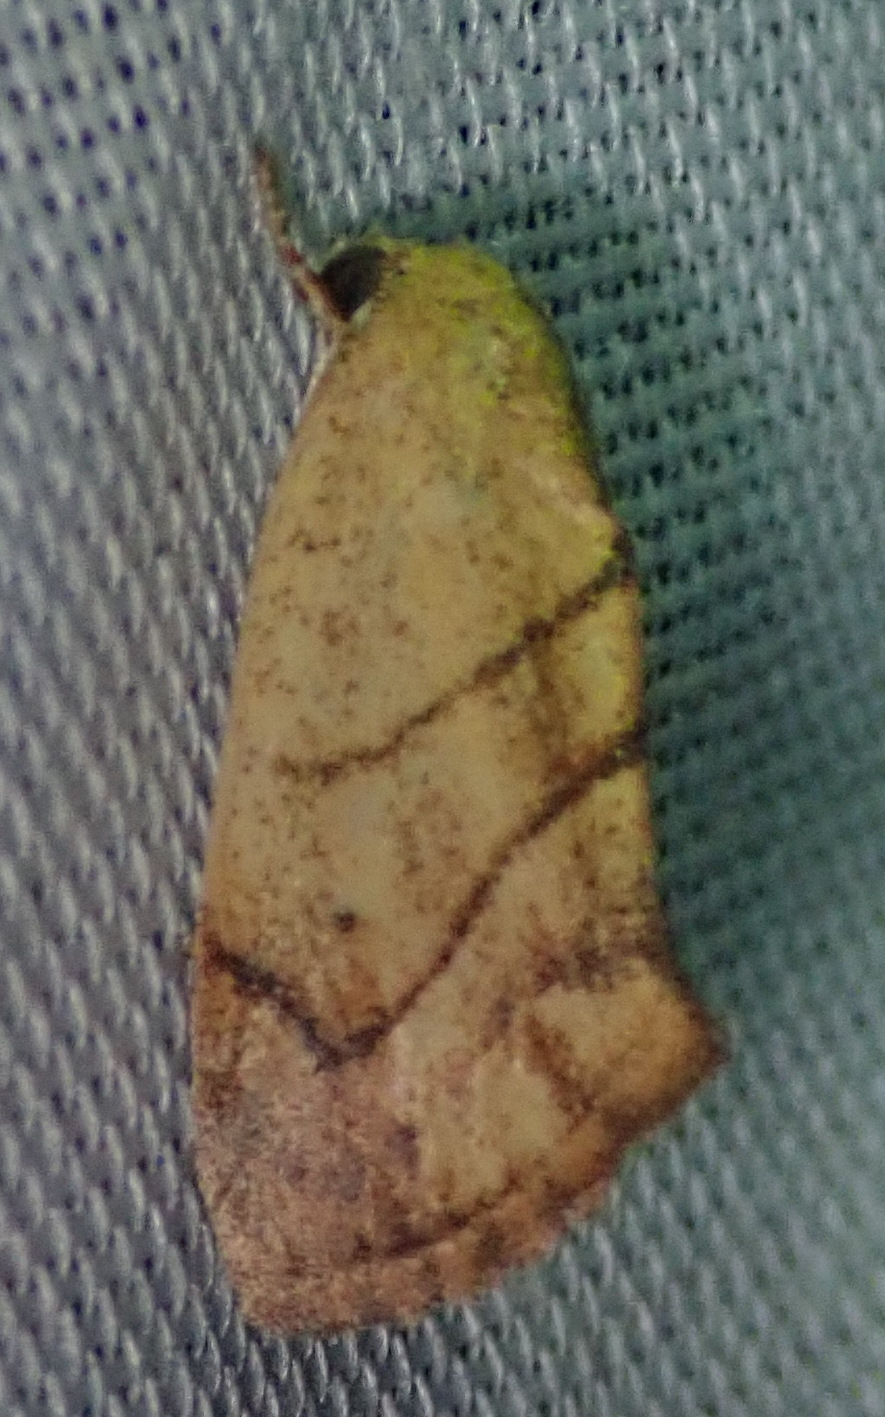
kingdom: Animalia
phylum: Arthropoda
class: Insecta
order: Lepidoptera
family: Nolidae
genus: Neaxestis
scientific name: Neaxestis rhoda
